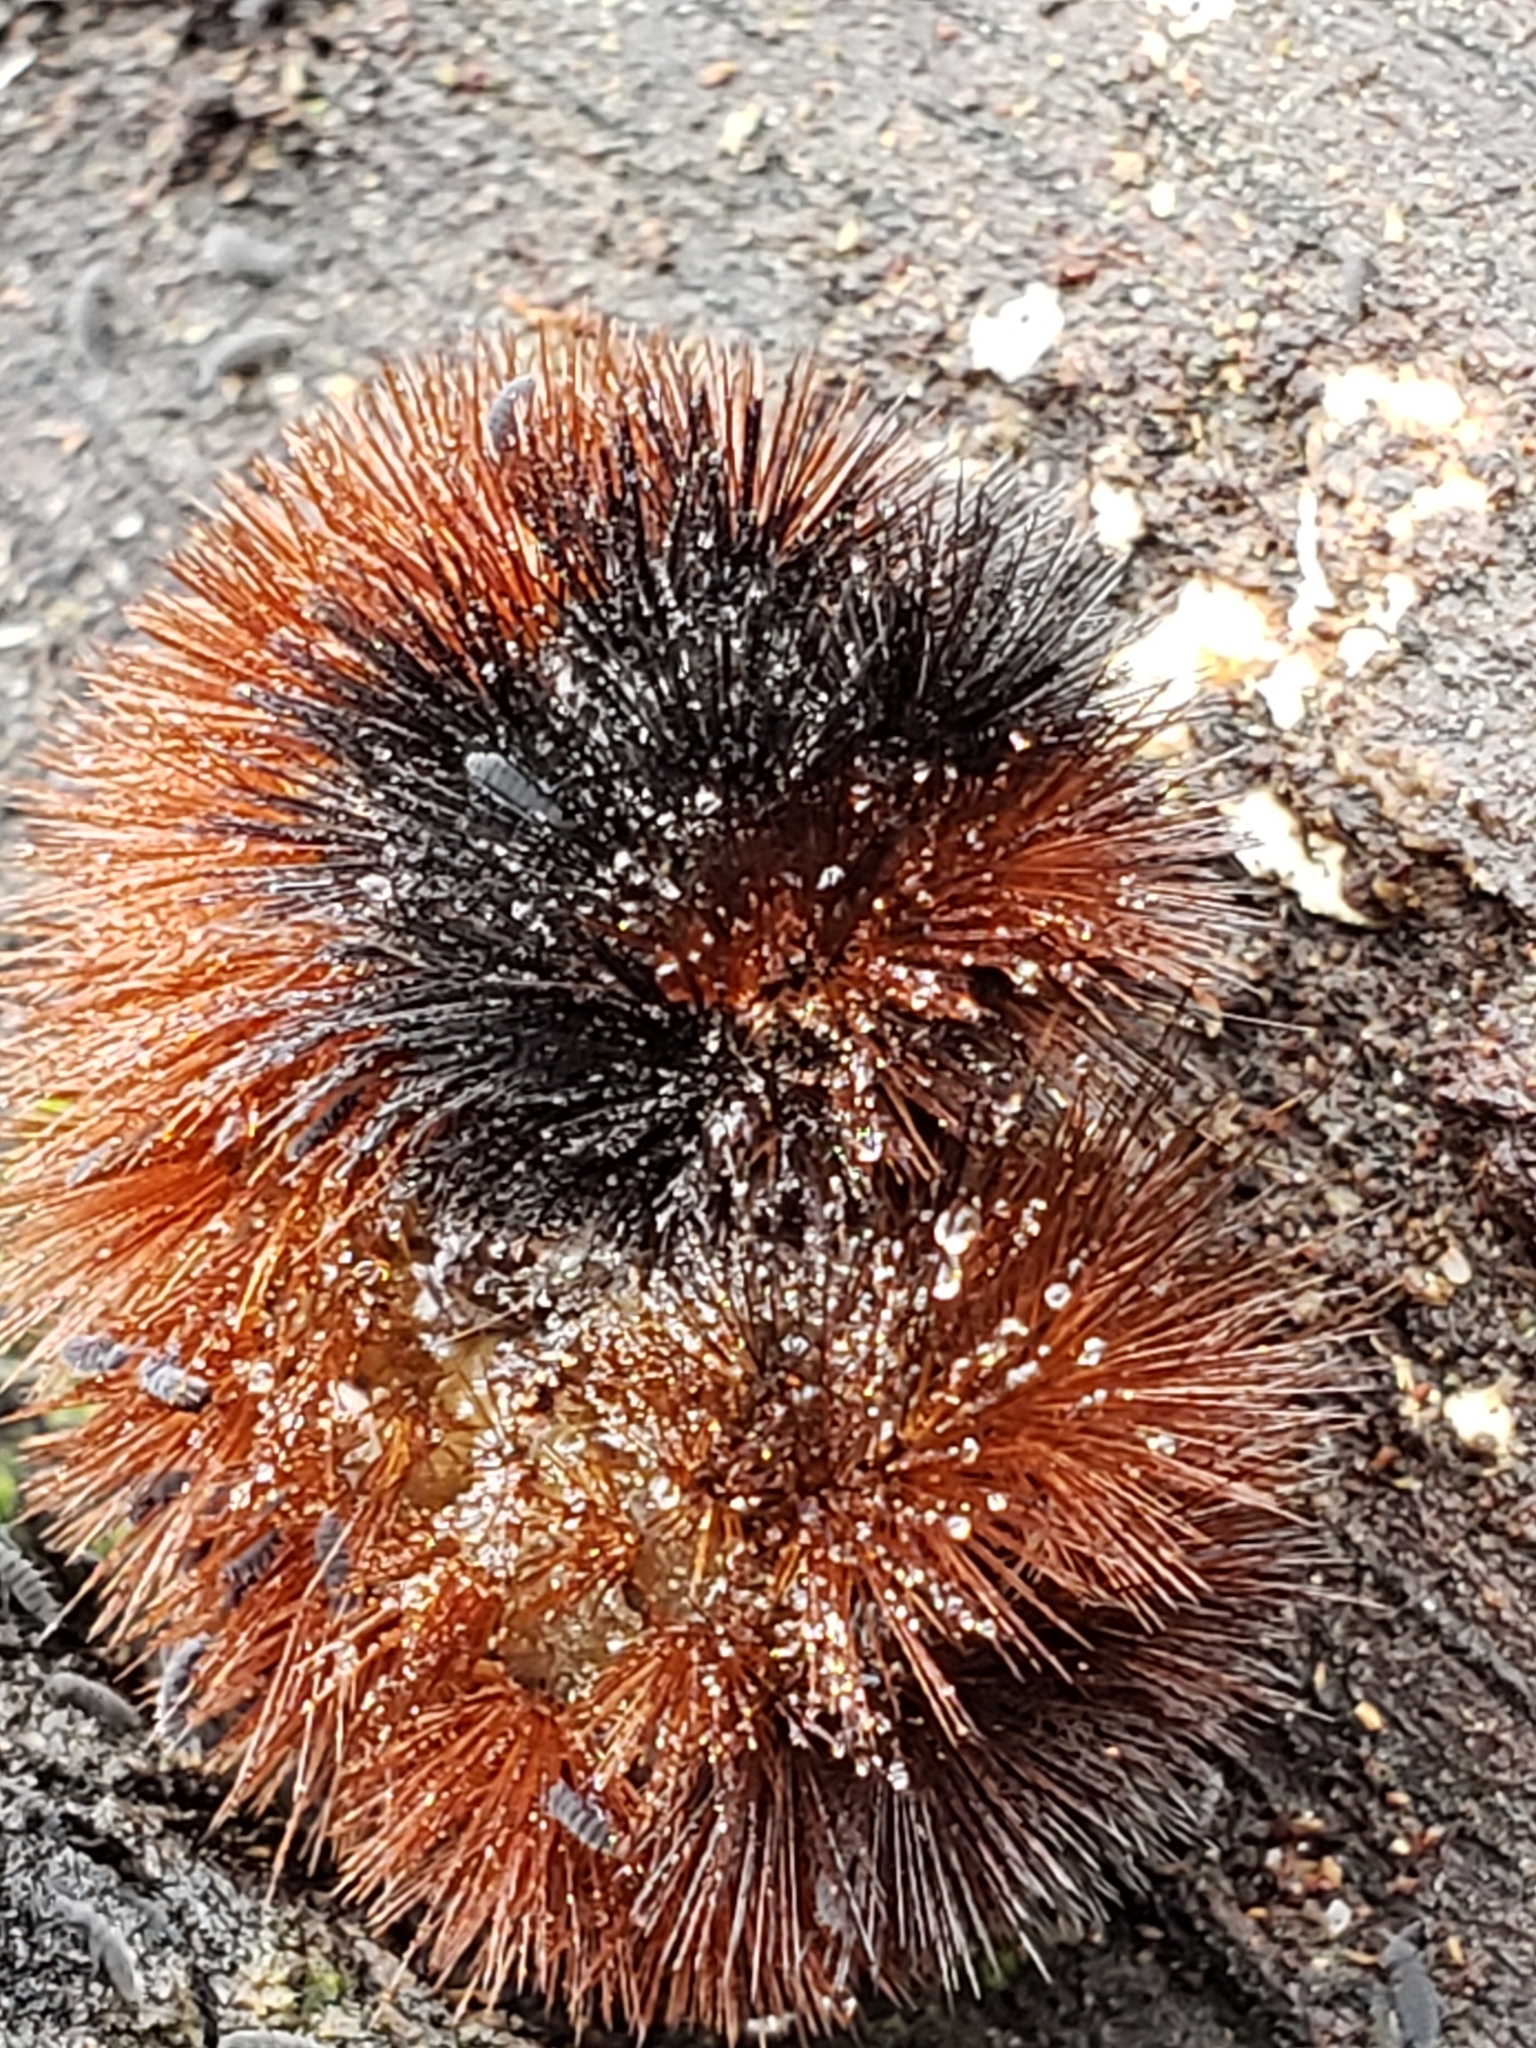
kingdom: Animalia
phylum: Arthropoda
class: Insecta
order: Lepidoptera
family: Erebidae
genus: Pyrrharctia
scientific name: Pyrrharctia isabella
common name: Isabella tiger moth
